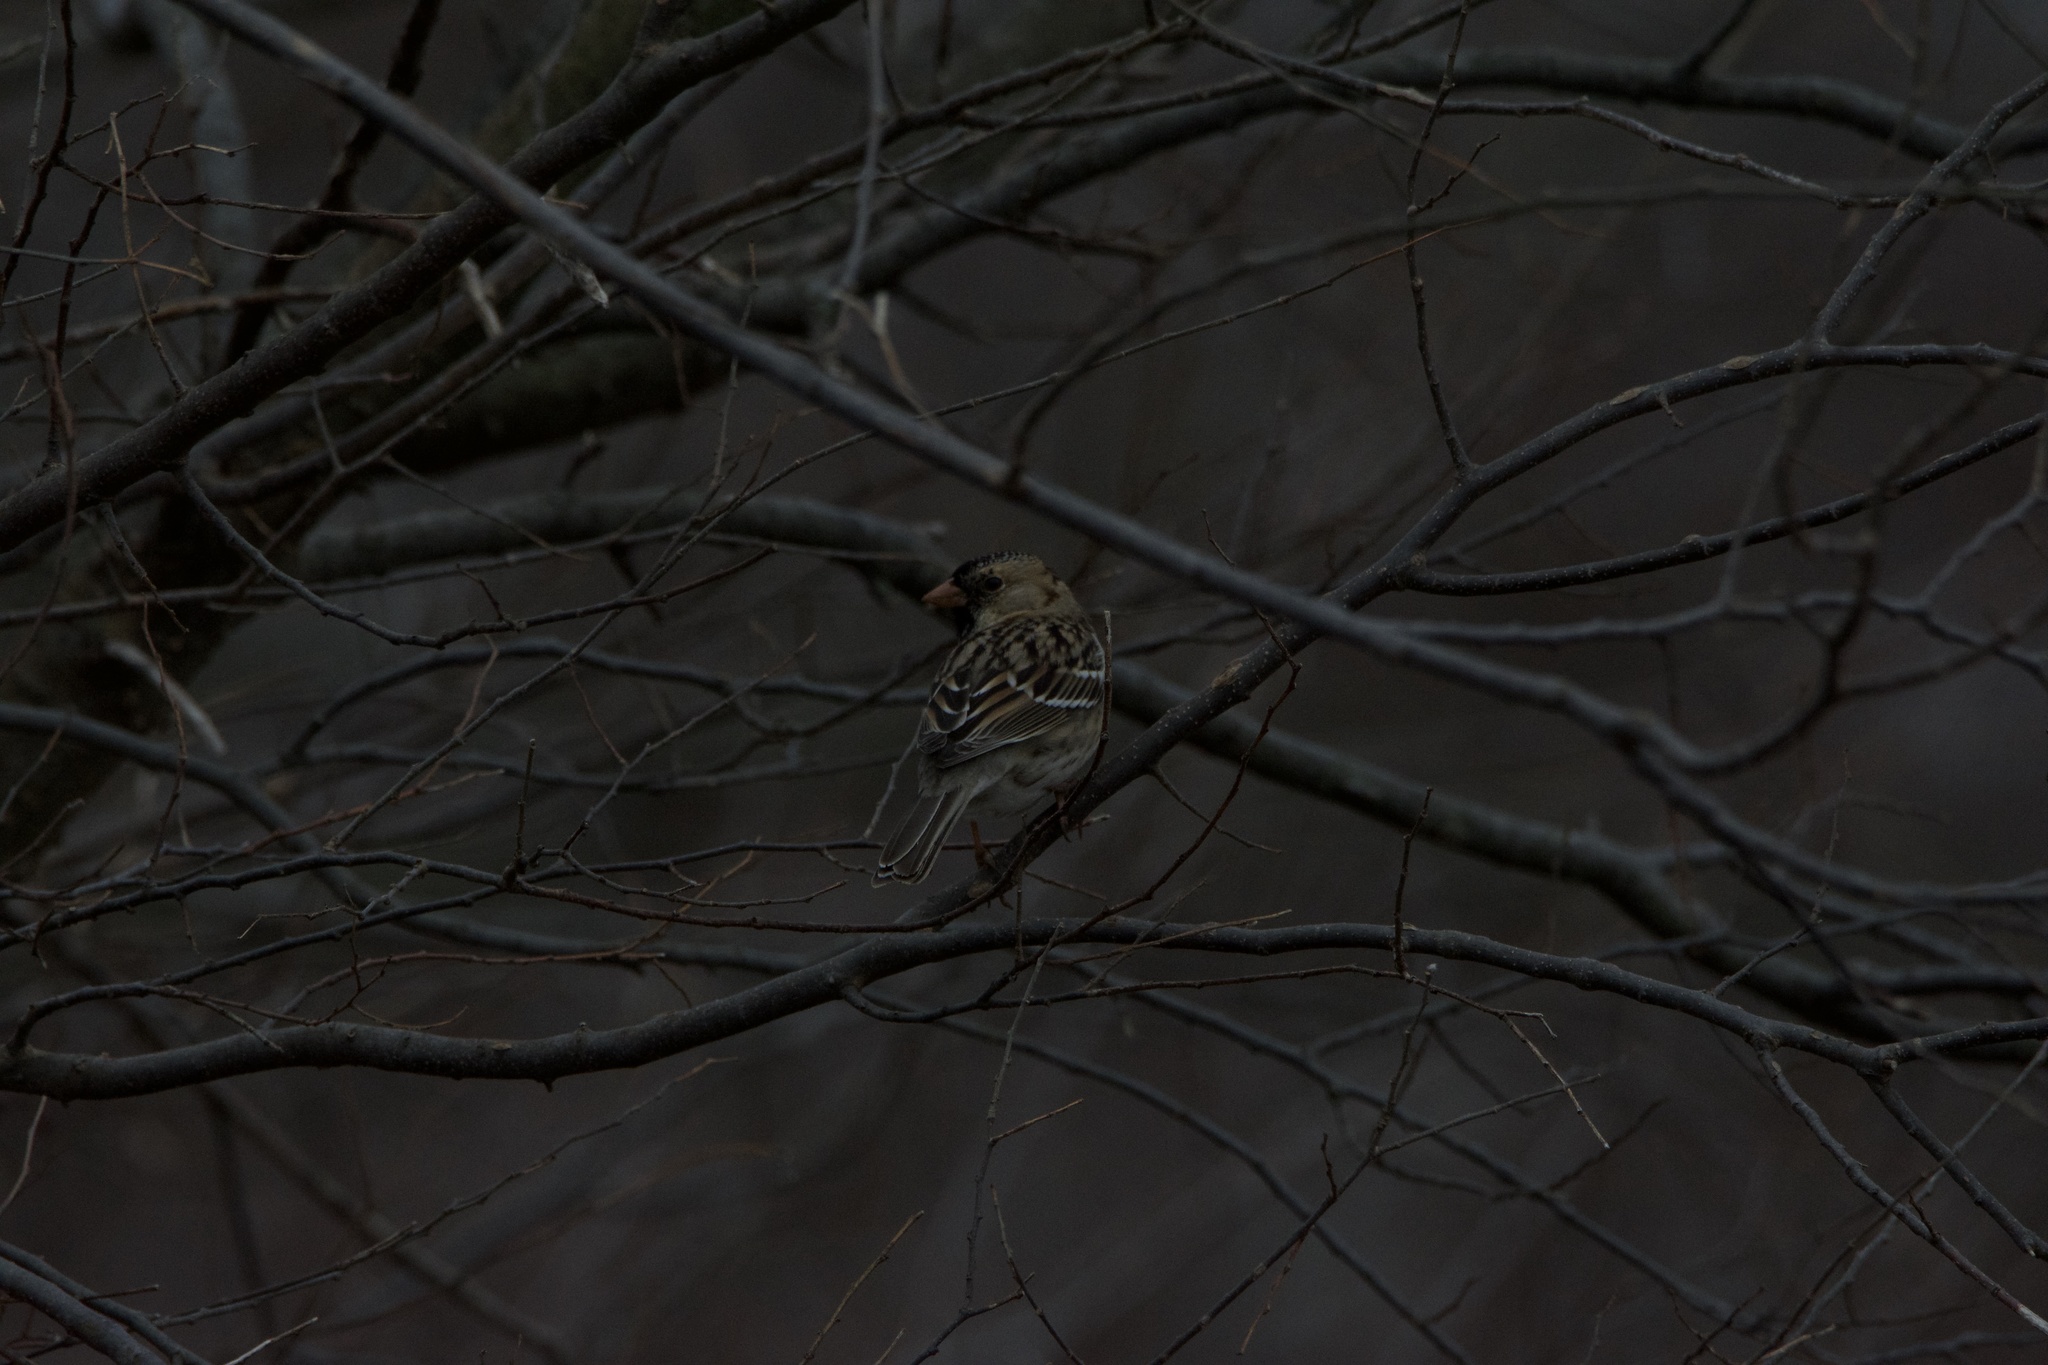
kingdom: Animalia
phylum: Chordata
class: Aves
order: Passeriformes
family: Passerellidae
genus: Zonotrichia
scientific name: Zonotrichia querula
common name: Harris's sparrow
